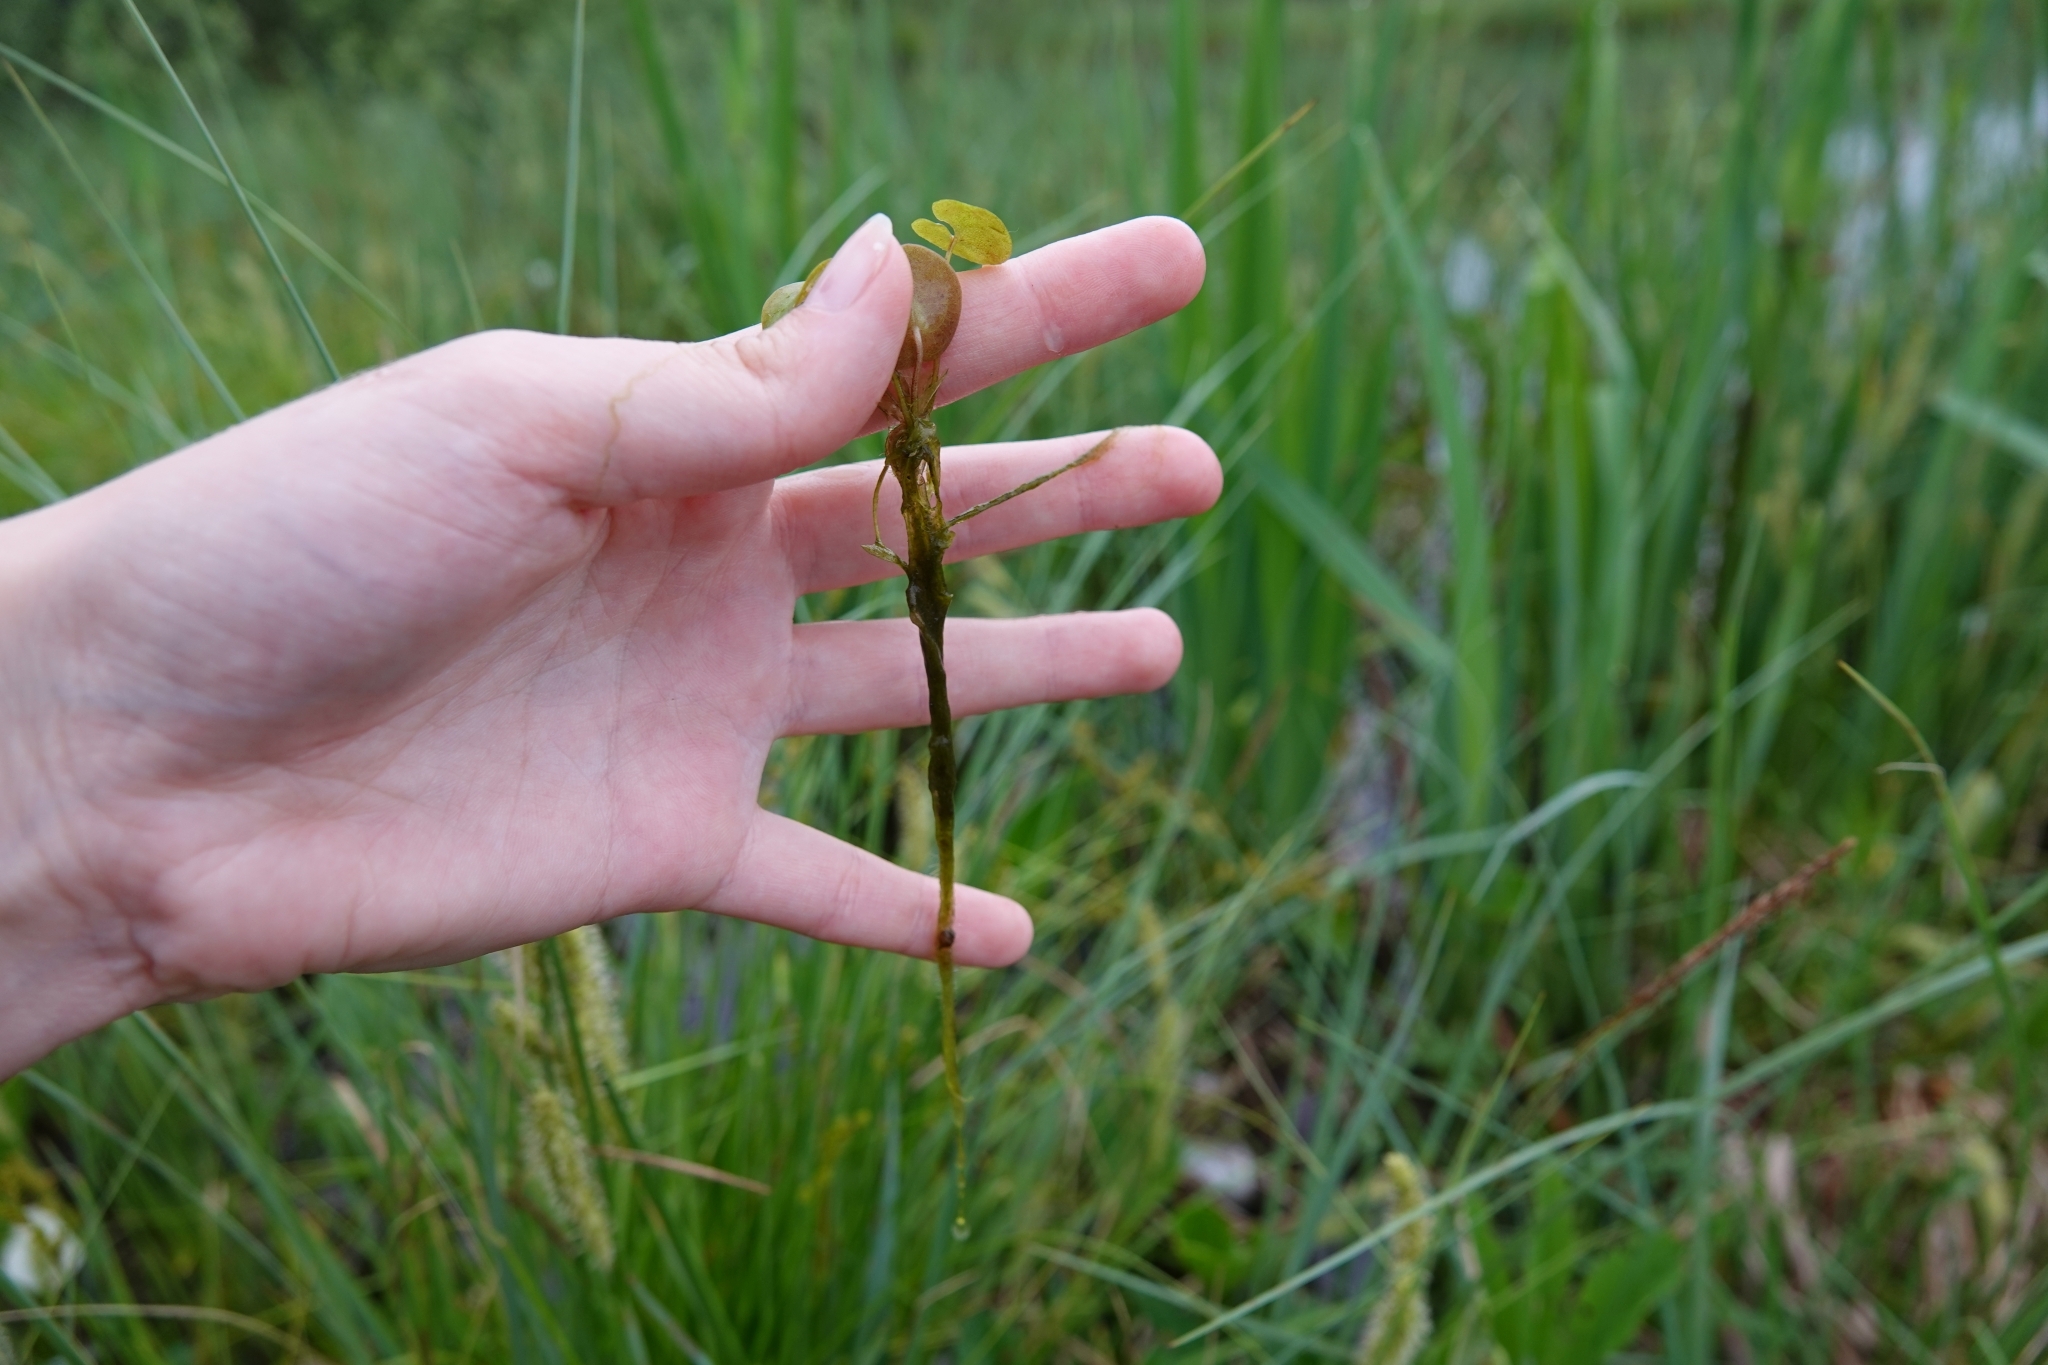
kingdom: Plantae
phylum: Tracheophyta
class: Liliopsida
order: Alismatales
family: Hydrocharitaceae
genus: Hydrocharis
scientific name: Hydrocharis morsus-ranae
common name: Frogbit
